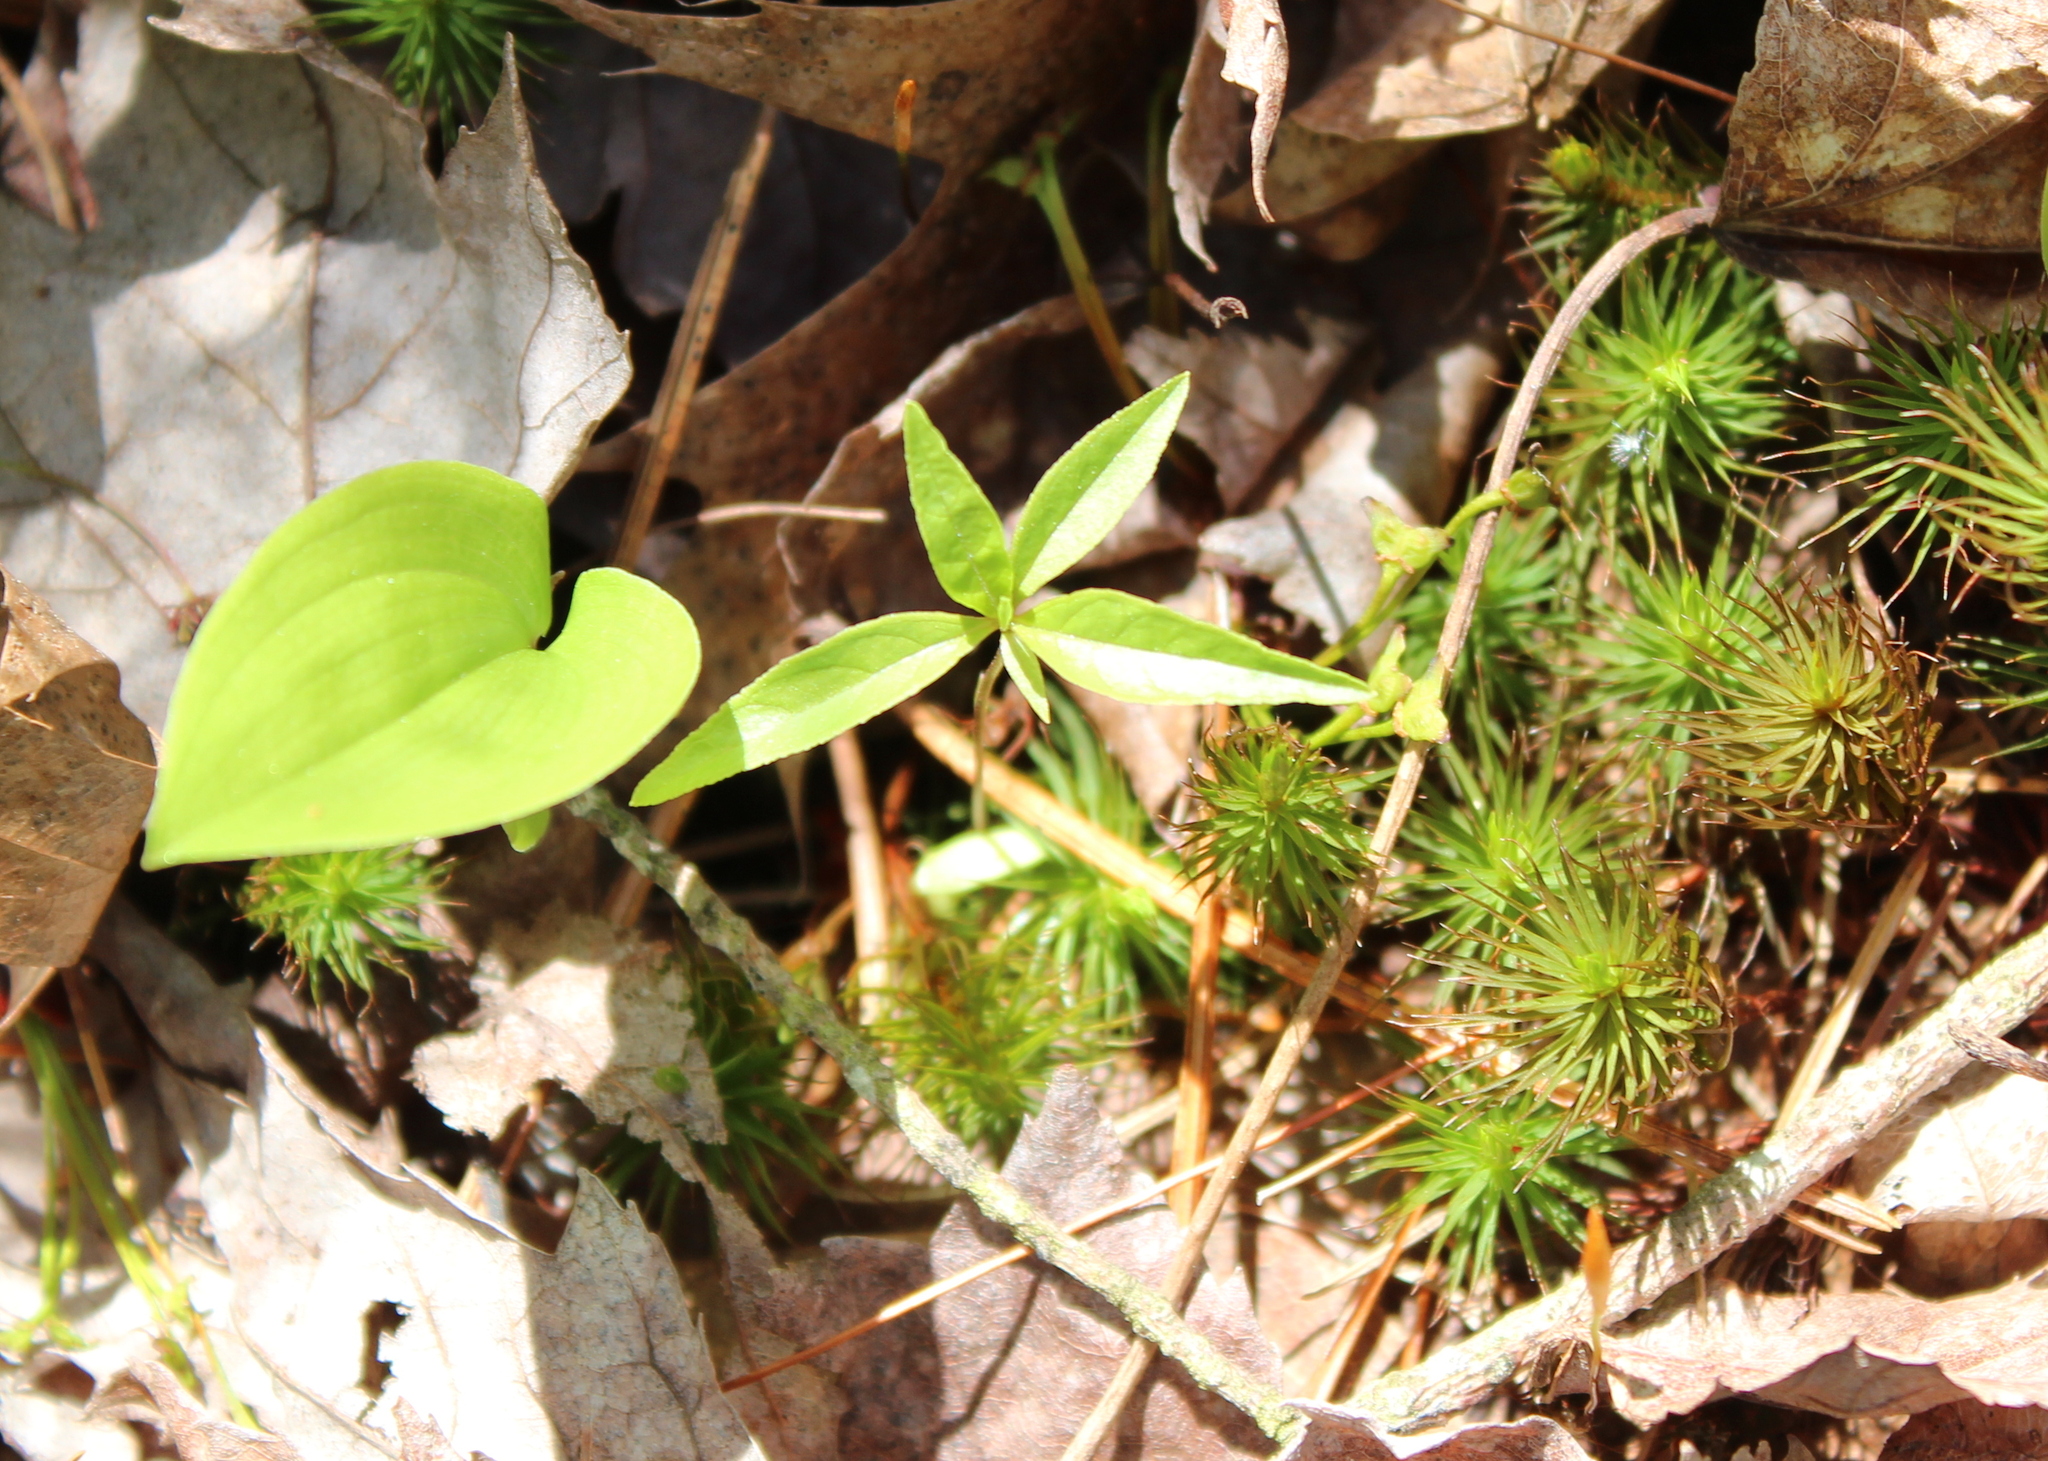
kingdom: Plantae
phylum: Tracheophyta
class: Magnoliopsida
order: Ericales
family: Primulaceae
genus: Lysimachia
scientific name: Lysimachia borealis
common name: American starflower
